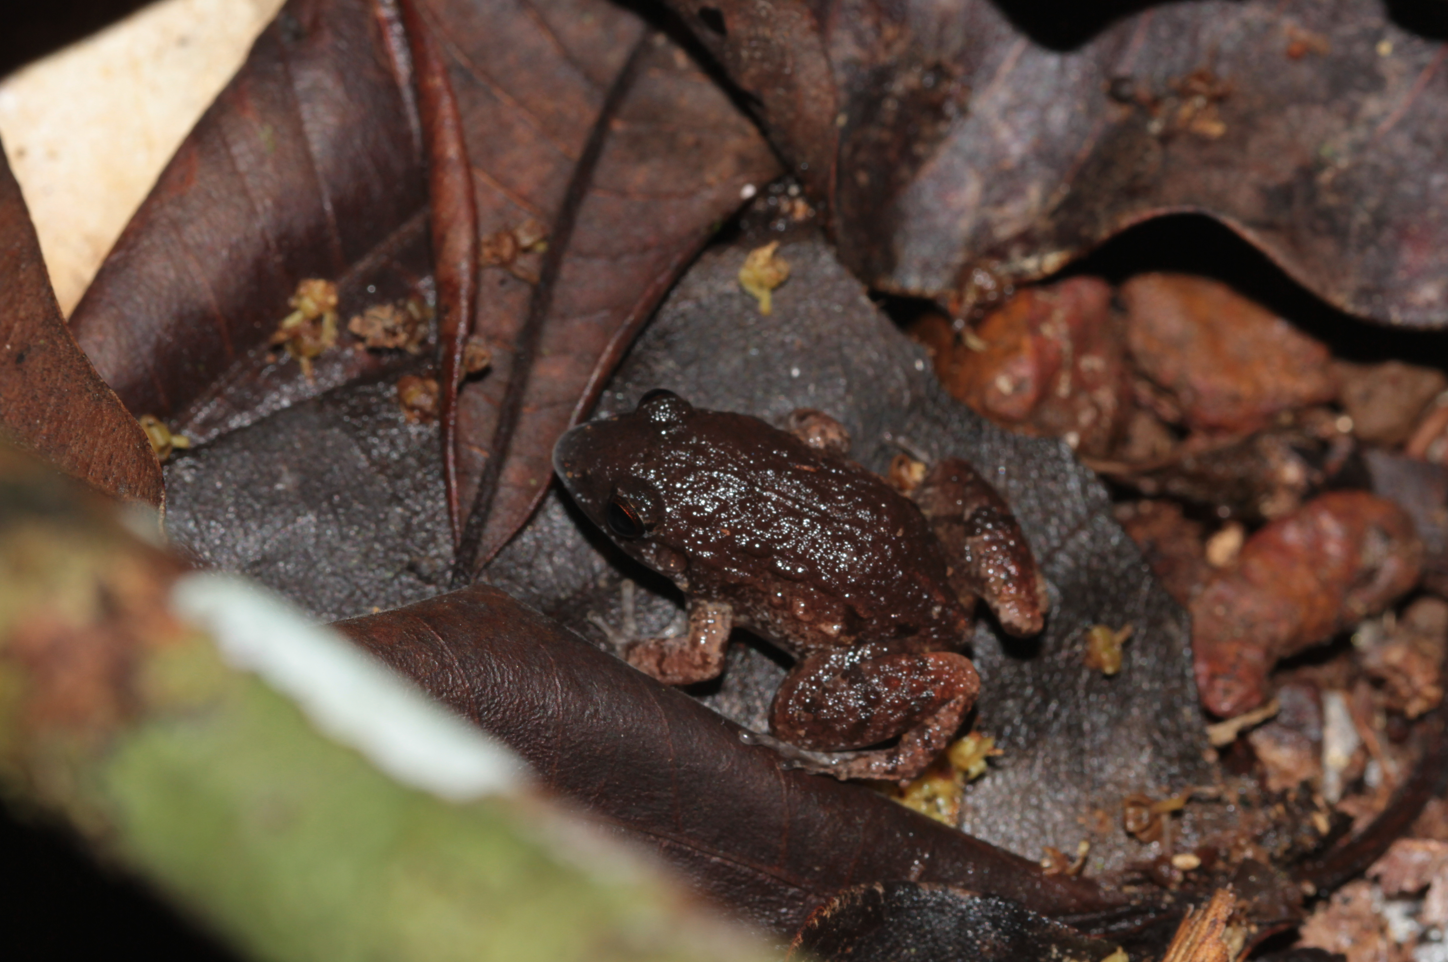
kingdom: Animalia
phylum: Chordata
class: Amphibia
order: Anura
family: Leptodactylidae
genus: Adenomera
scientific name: Adenomera andreae
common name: Lowland tropical bullfrog
